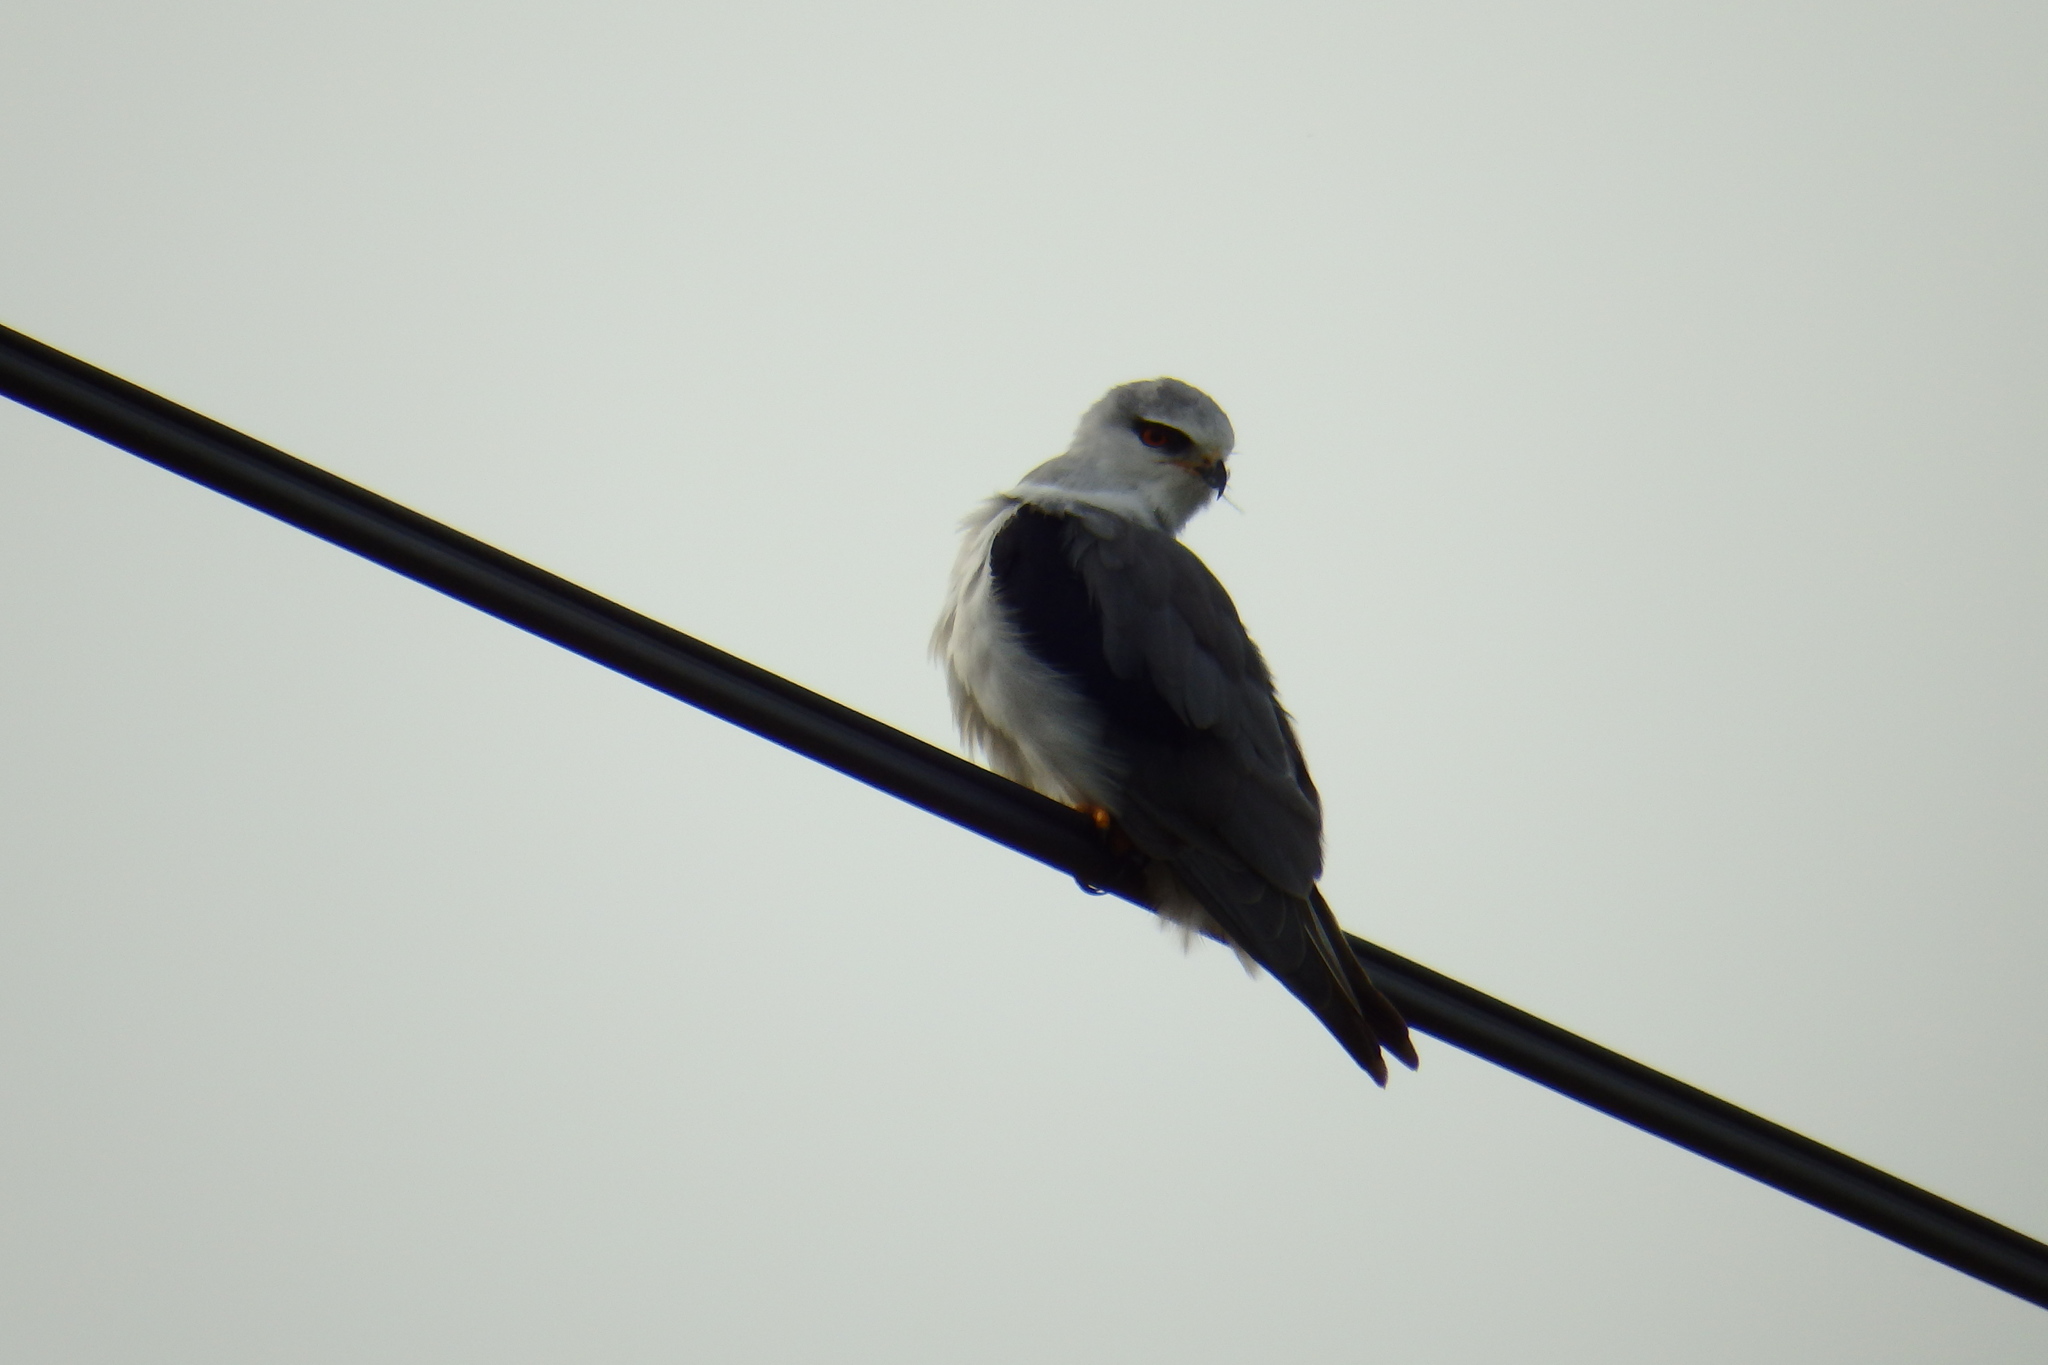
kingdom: Animalia
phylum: Chordata
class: Aves
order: Accipitriformes
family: Accipitridae
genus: Elanus
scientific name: Elanus caeruleus
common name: Black-winged kite
